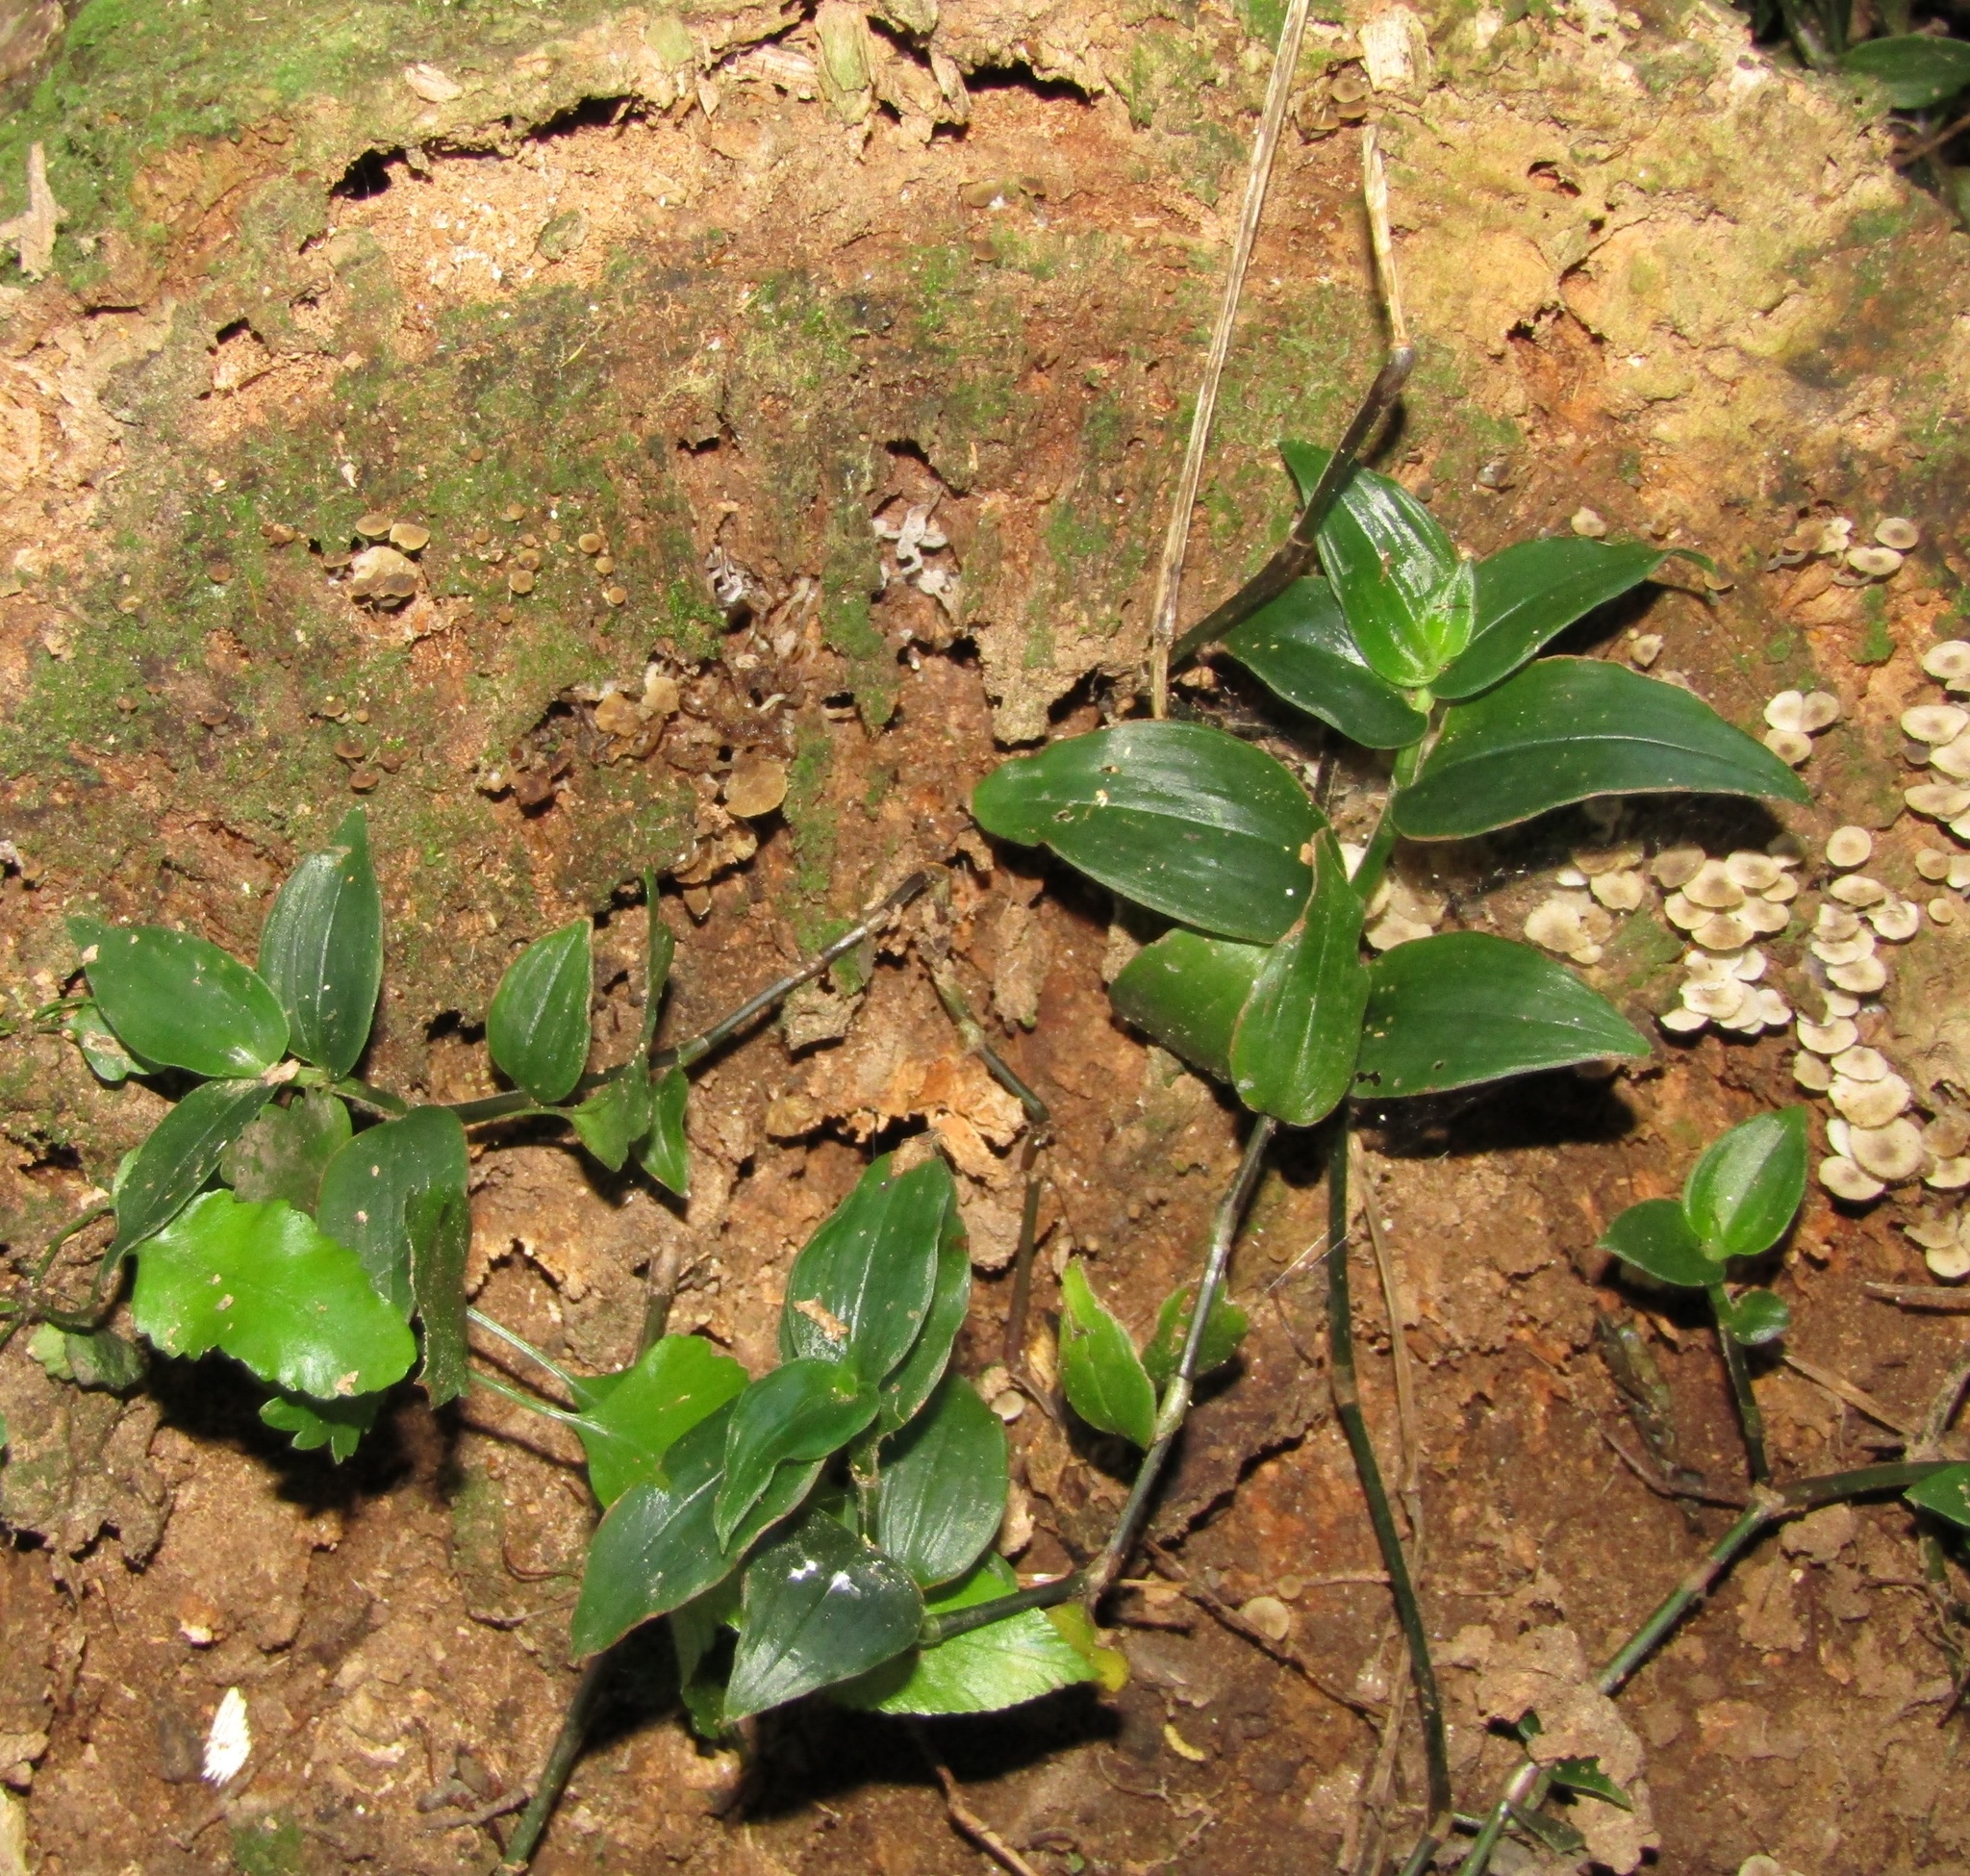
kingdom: Plantae
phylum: Tracheophyta
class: Liliopsida
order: Commelinales
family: Commelinaceae
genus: Tradescantia
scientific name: Tradescantia fluminensis
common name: Wandering-jew
